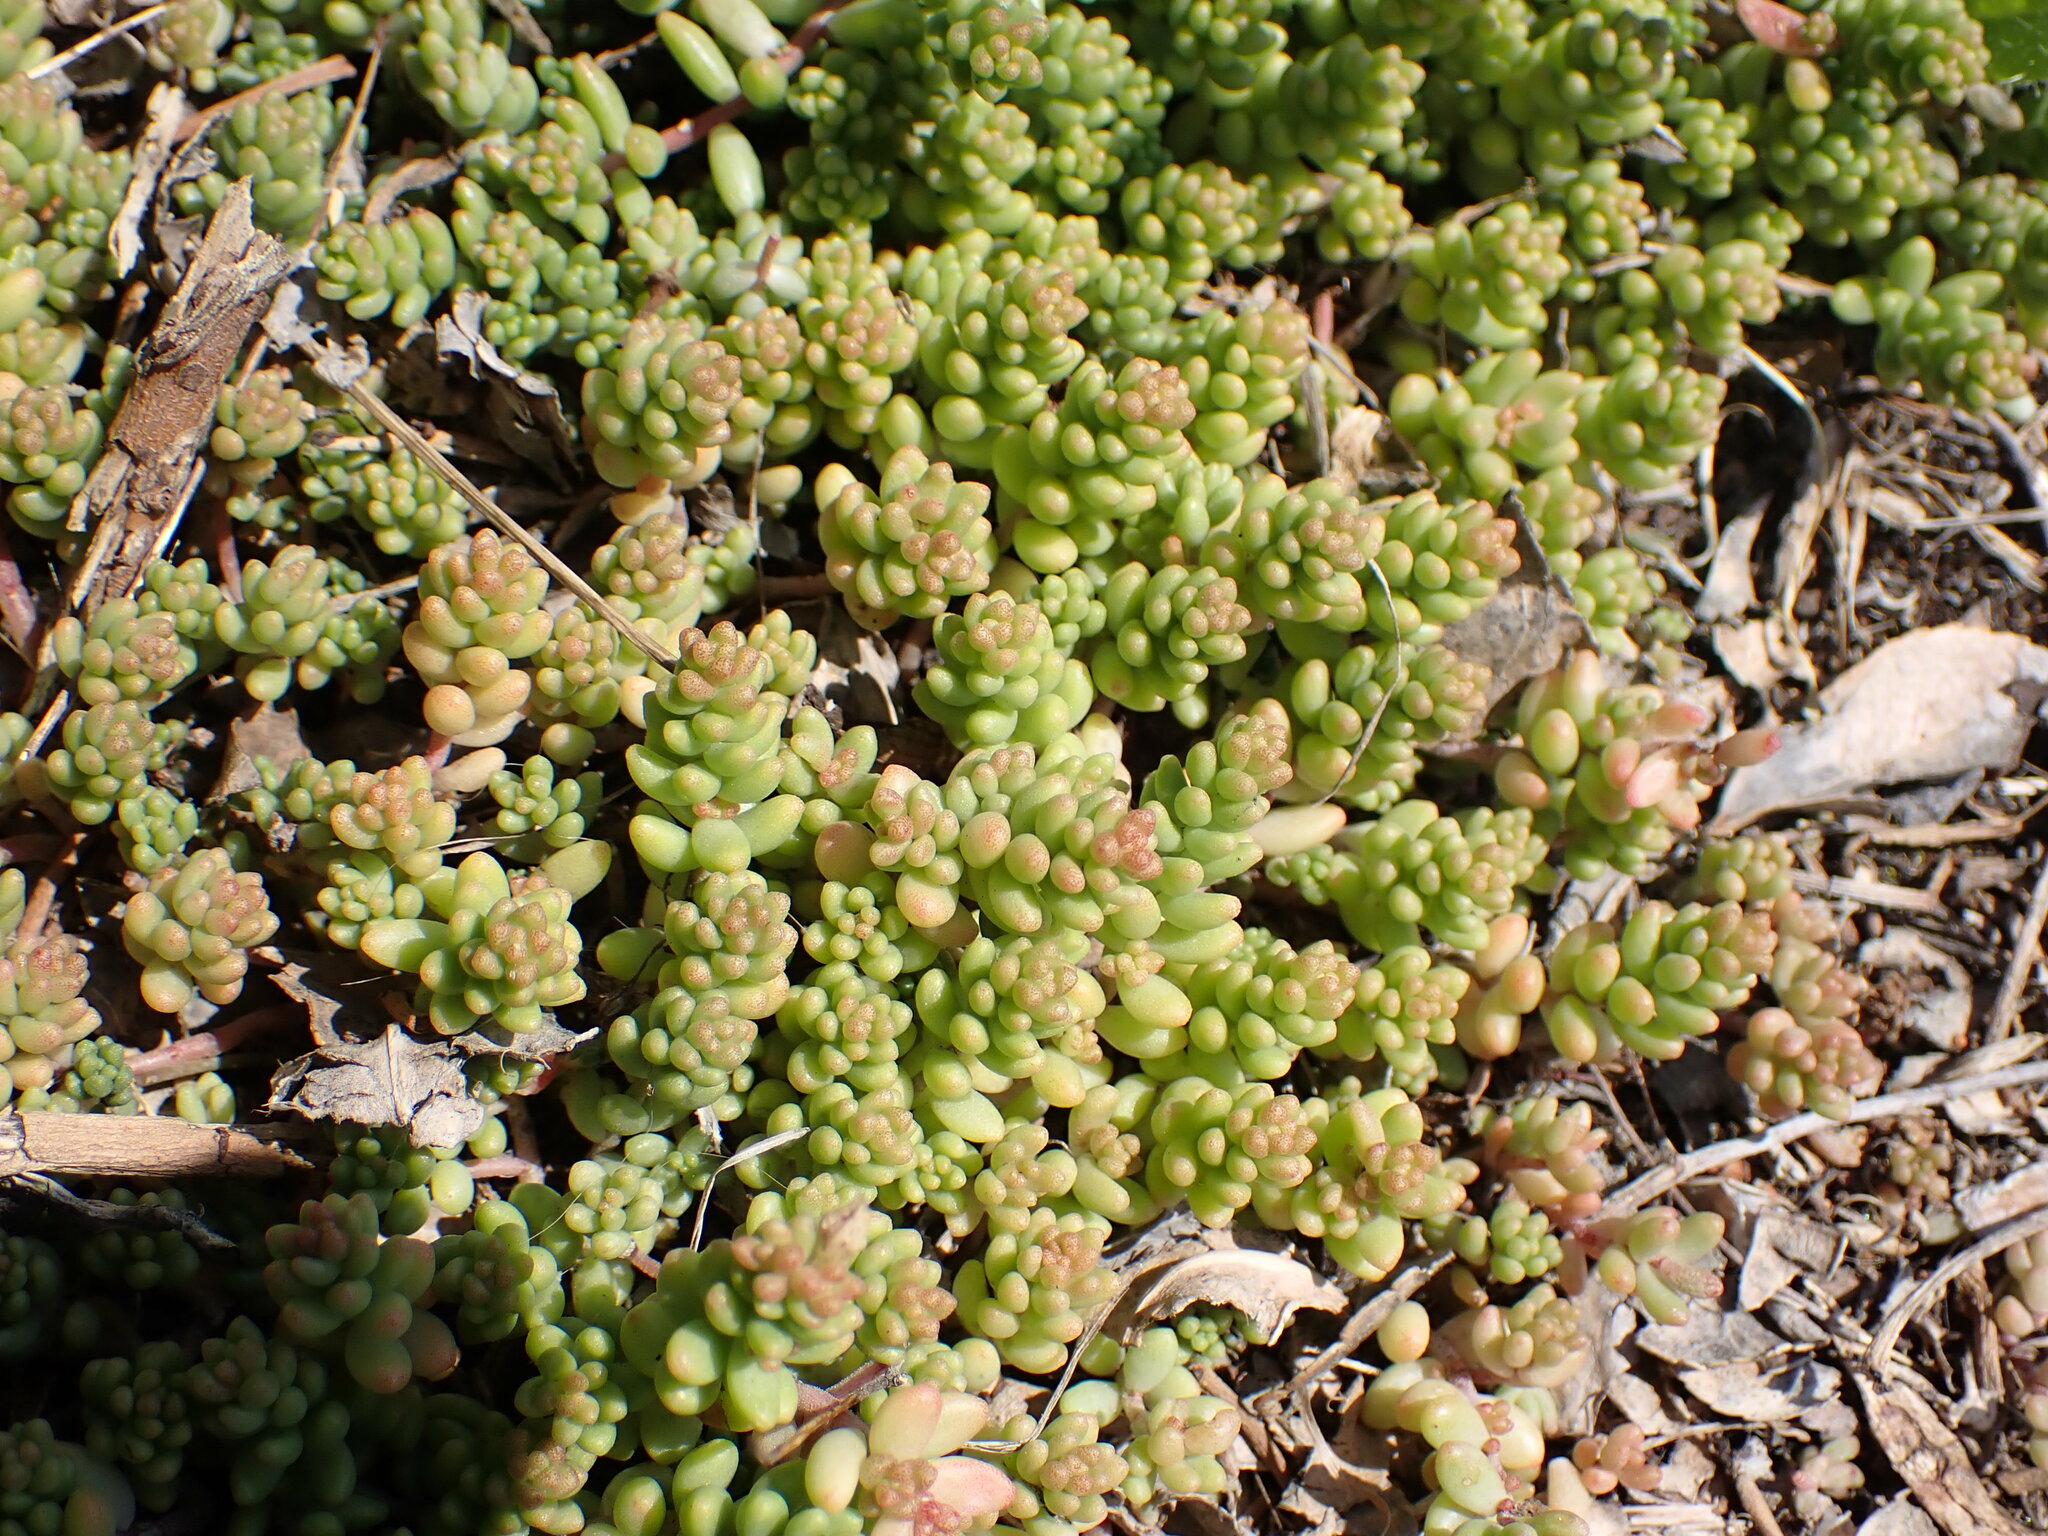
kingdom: Plantae
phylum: Tracheophyta
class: Magnoliopsida
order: Saxifragales
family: Crassulaceae
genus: Sedum
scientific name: Sedum album
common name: White stonecrop
